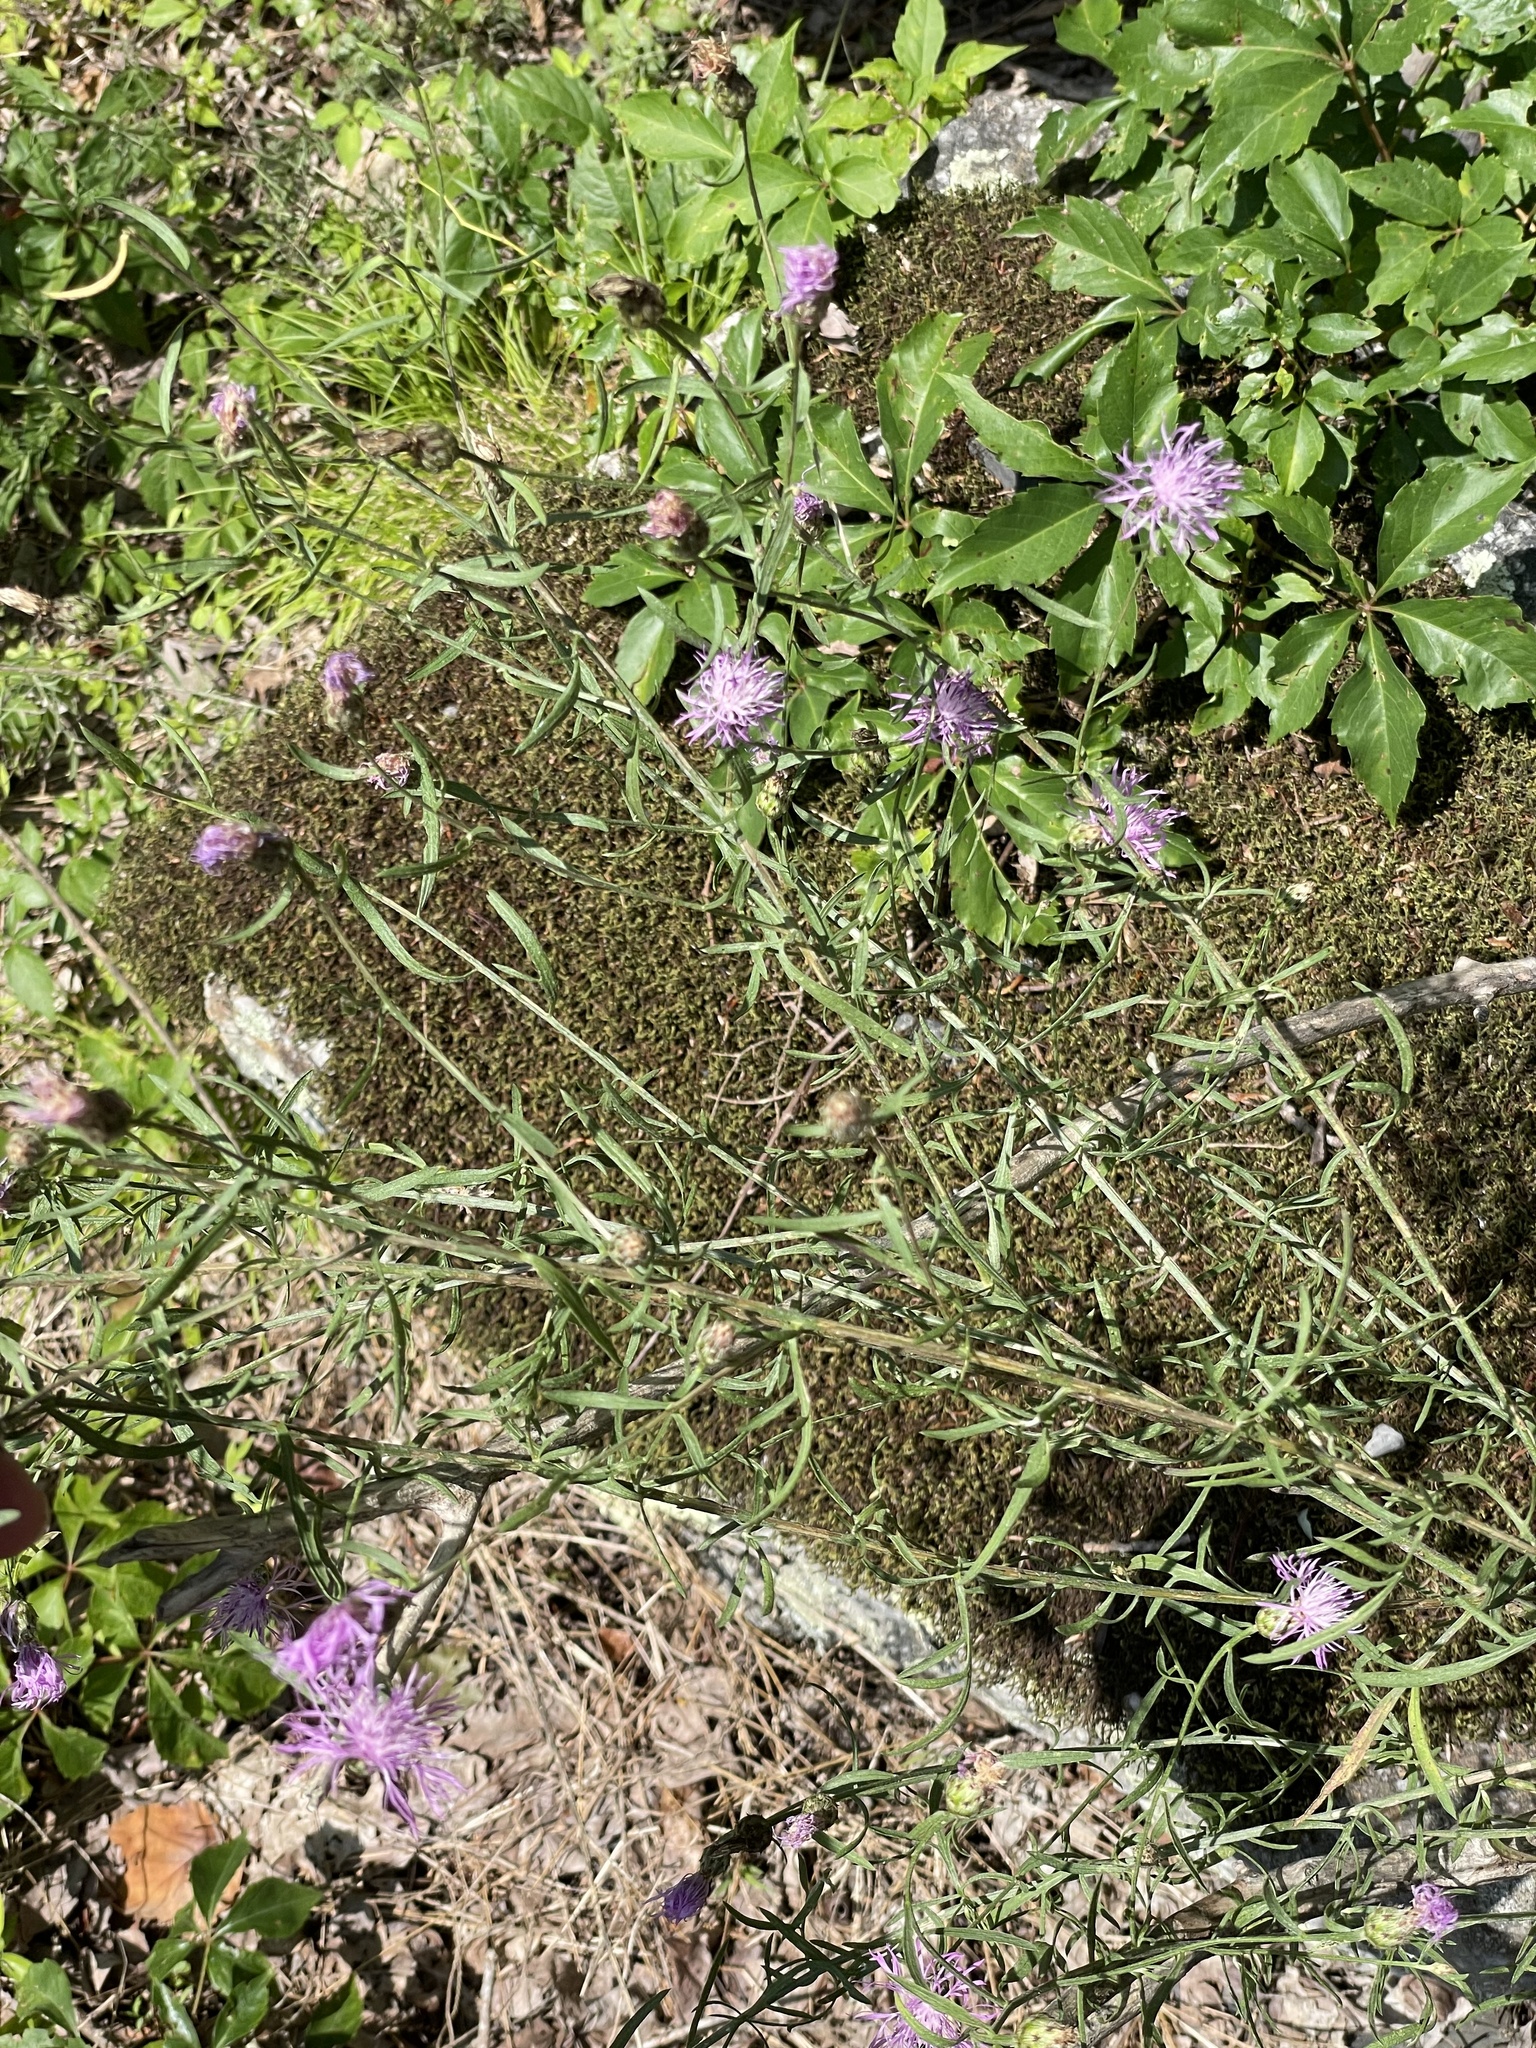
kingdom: Plantae
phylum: Tracheophyta
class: Magnoliopsida
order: Asterales
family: Asteraceae
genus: Centaurea
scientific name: Centaurea stoebe
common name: Spotted knapweed
